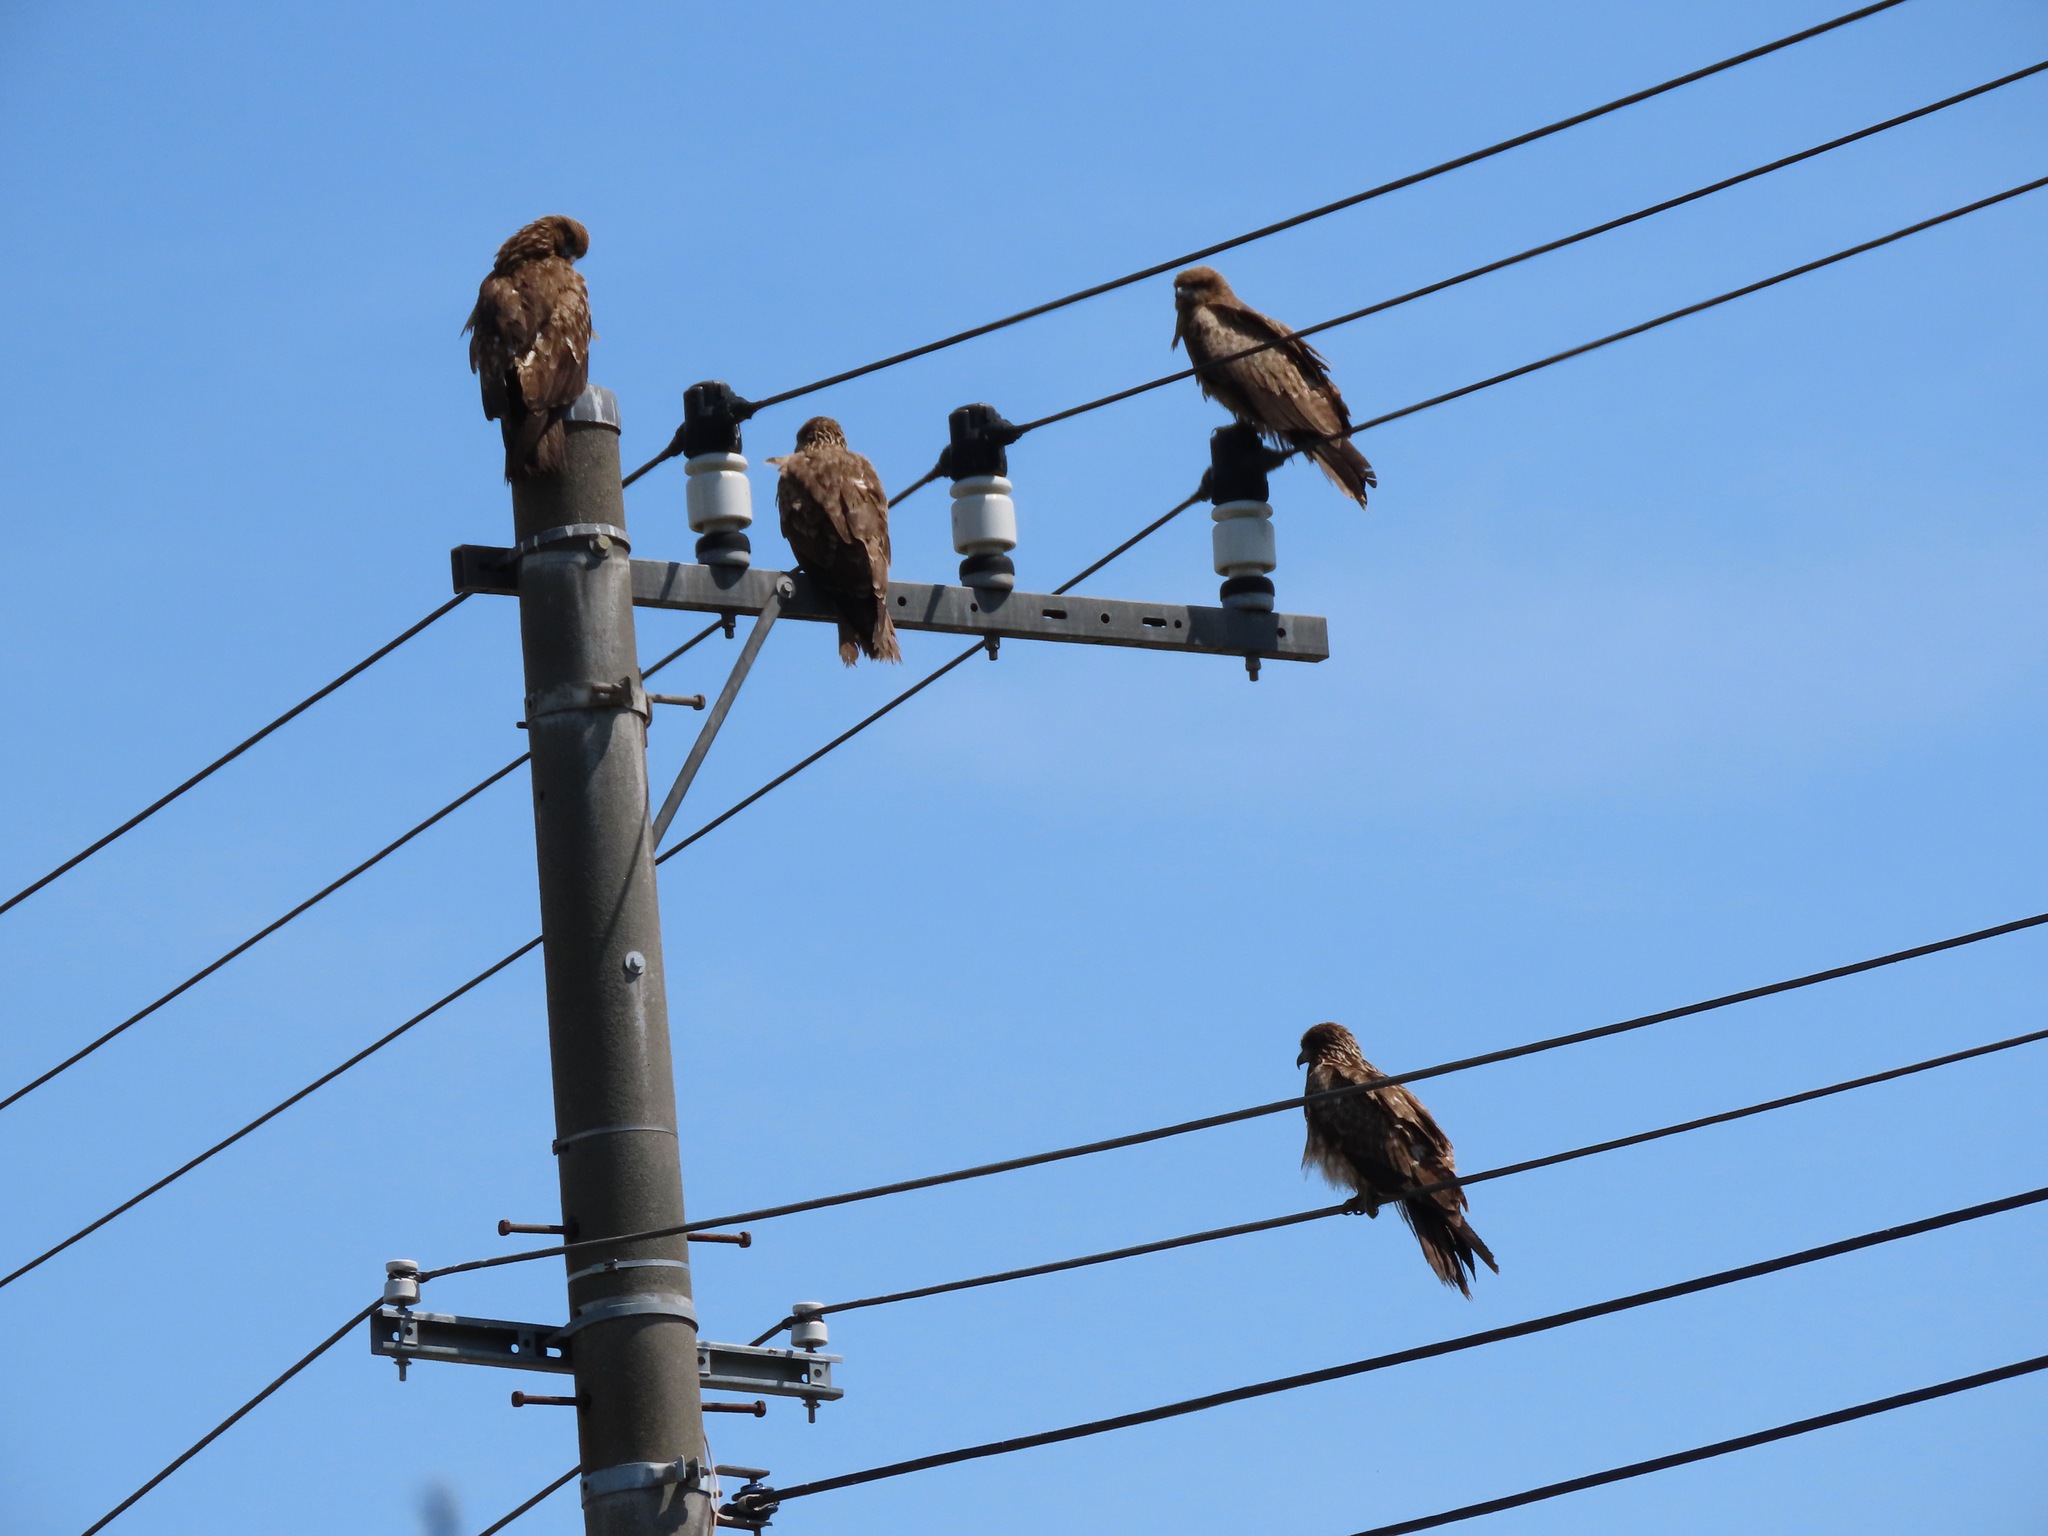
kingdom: Animalia
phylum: Chordata
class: Aves
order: Accipitriformes
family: Accipitridae
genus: Milvus
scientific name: Milvus migrans
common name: Black kite
